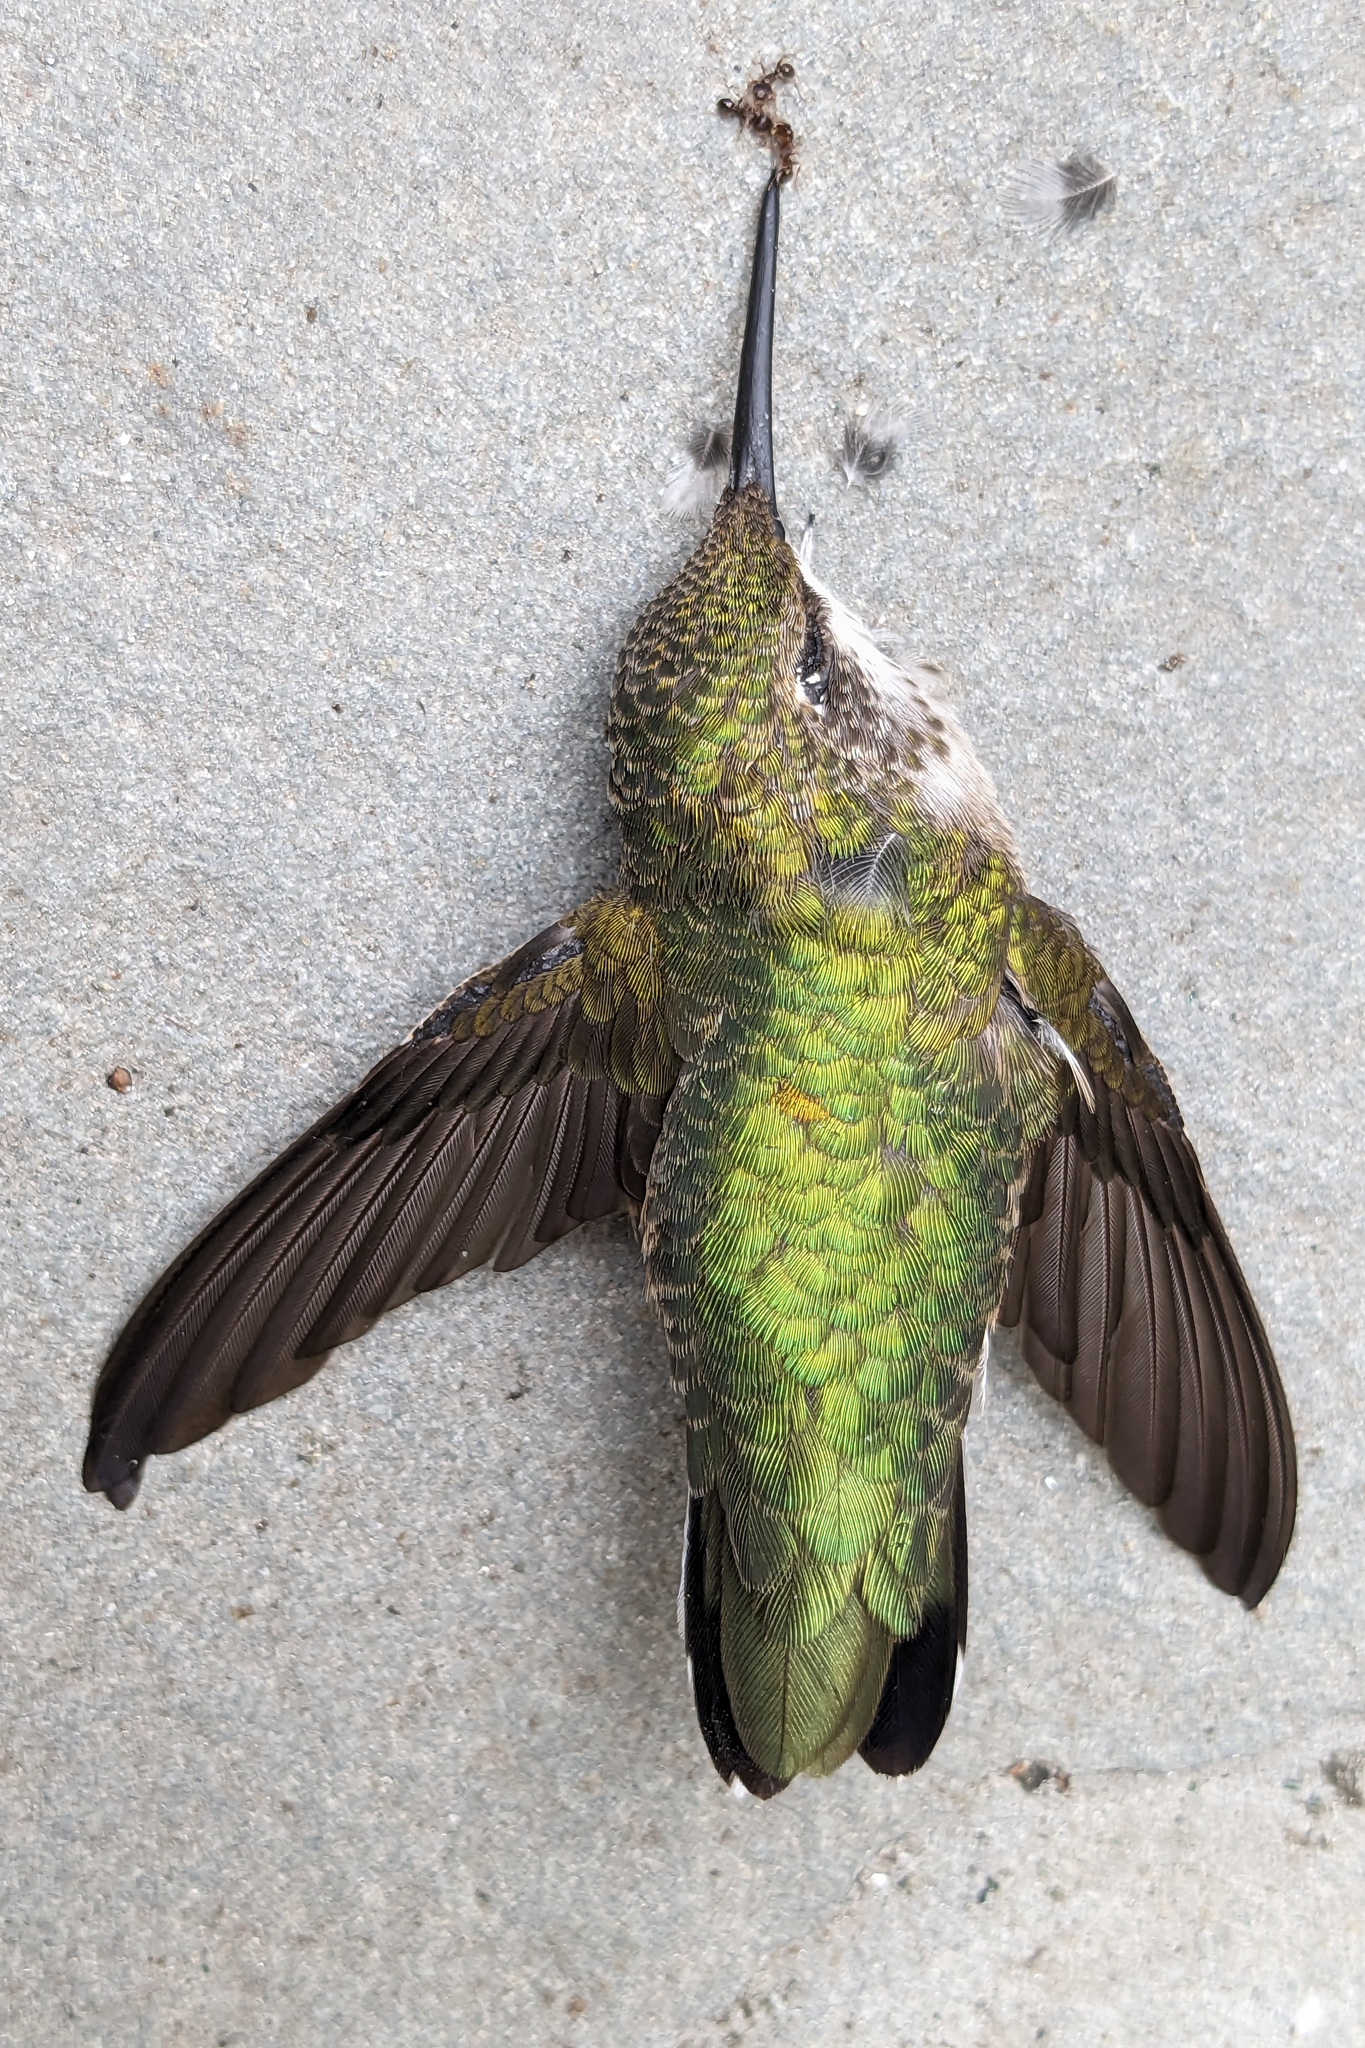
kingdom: Animalia
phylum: Chordata
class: Aves
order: Apodiformes
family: Trochilidae
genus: Archilochus
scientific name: Archilochus colubris
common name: Ruby-throated hummingbird
